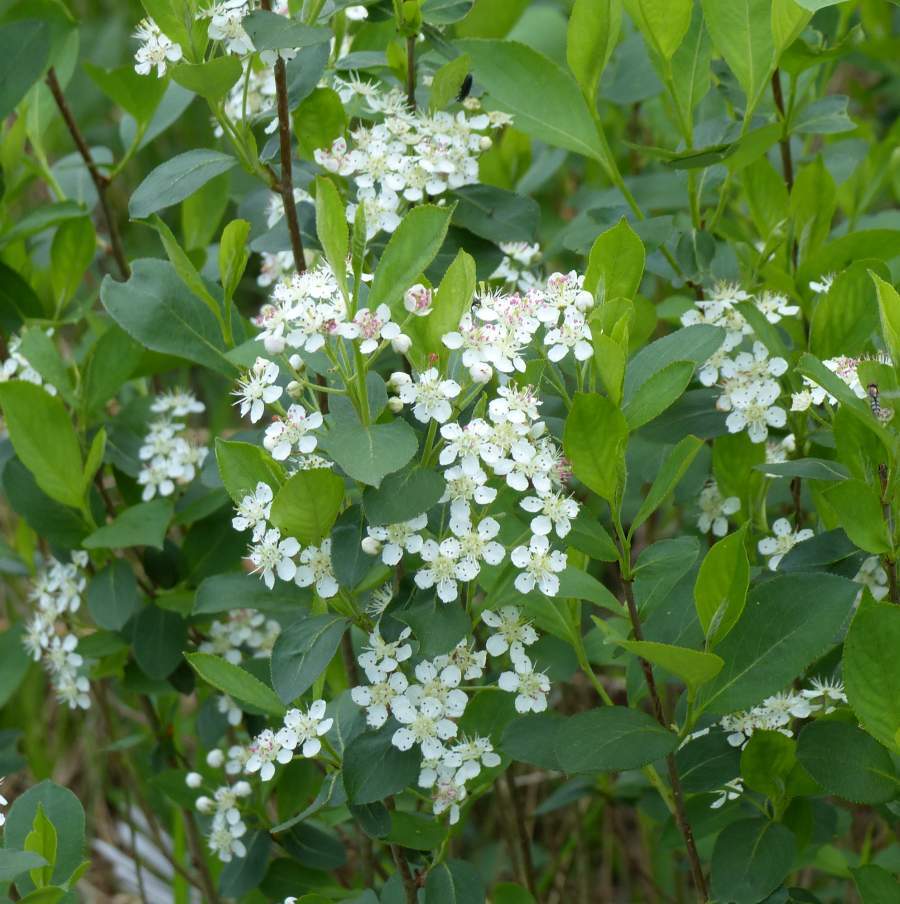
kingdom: Plantae
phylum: Tracheophyta
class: Magnoliopsida
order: Rosales
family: Rosaceae
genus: Aronia
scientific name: Aronia melanocarpa
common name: Black chokeberry
